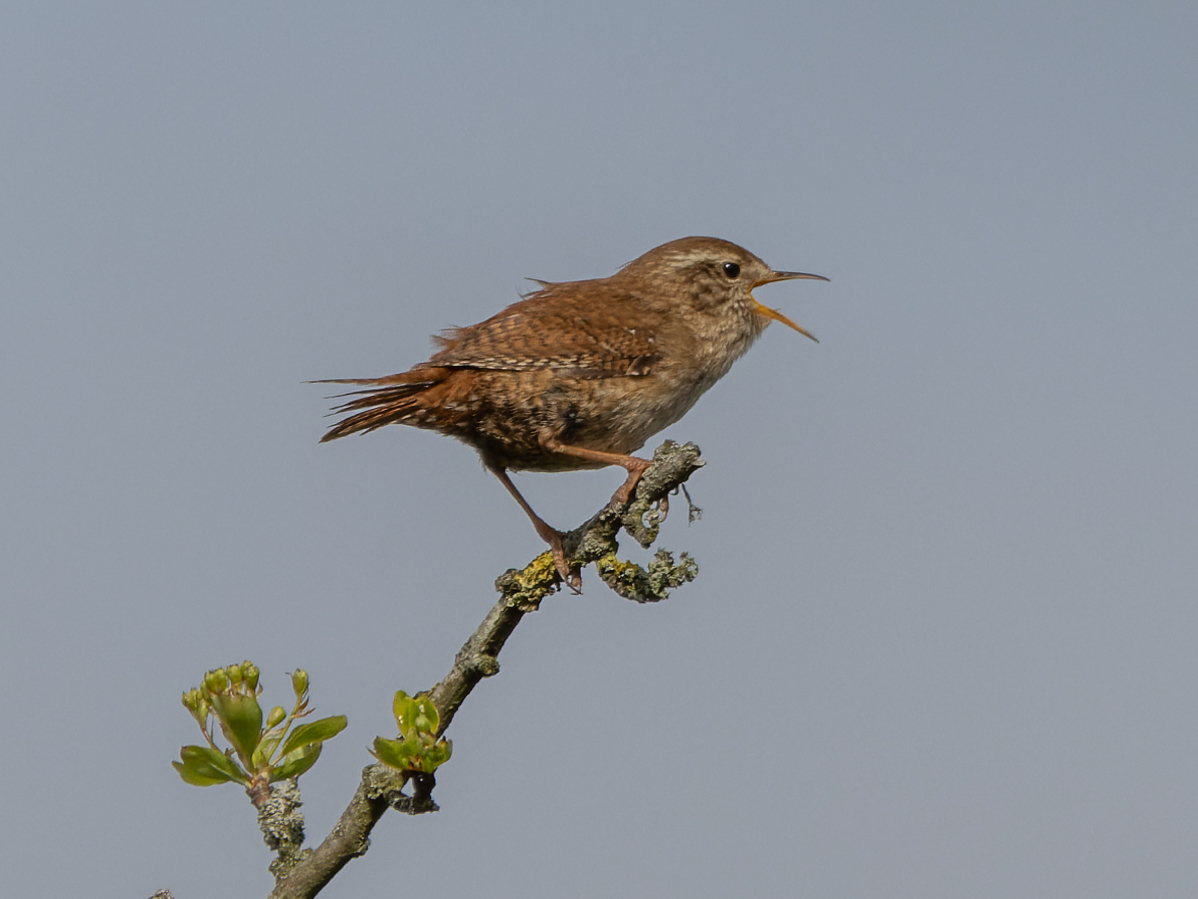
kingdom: Animalia
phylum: Chordata
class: Aves
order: Passeriformes
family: Troglodytidae
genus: Troglodytes
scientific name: Troglodytes troglodytes
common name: Eurasian wren
